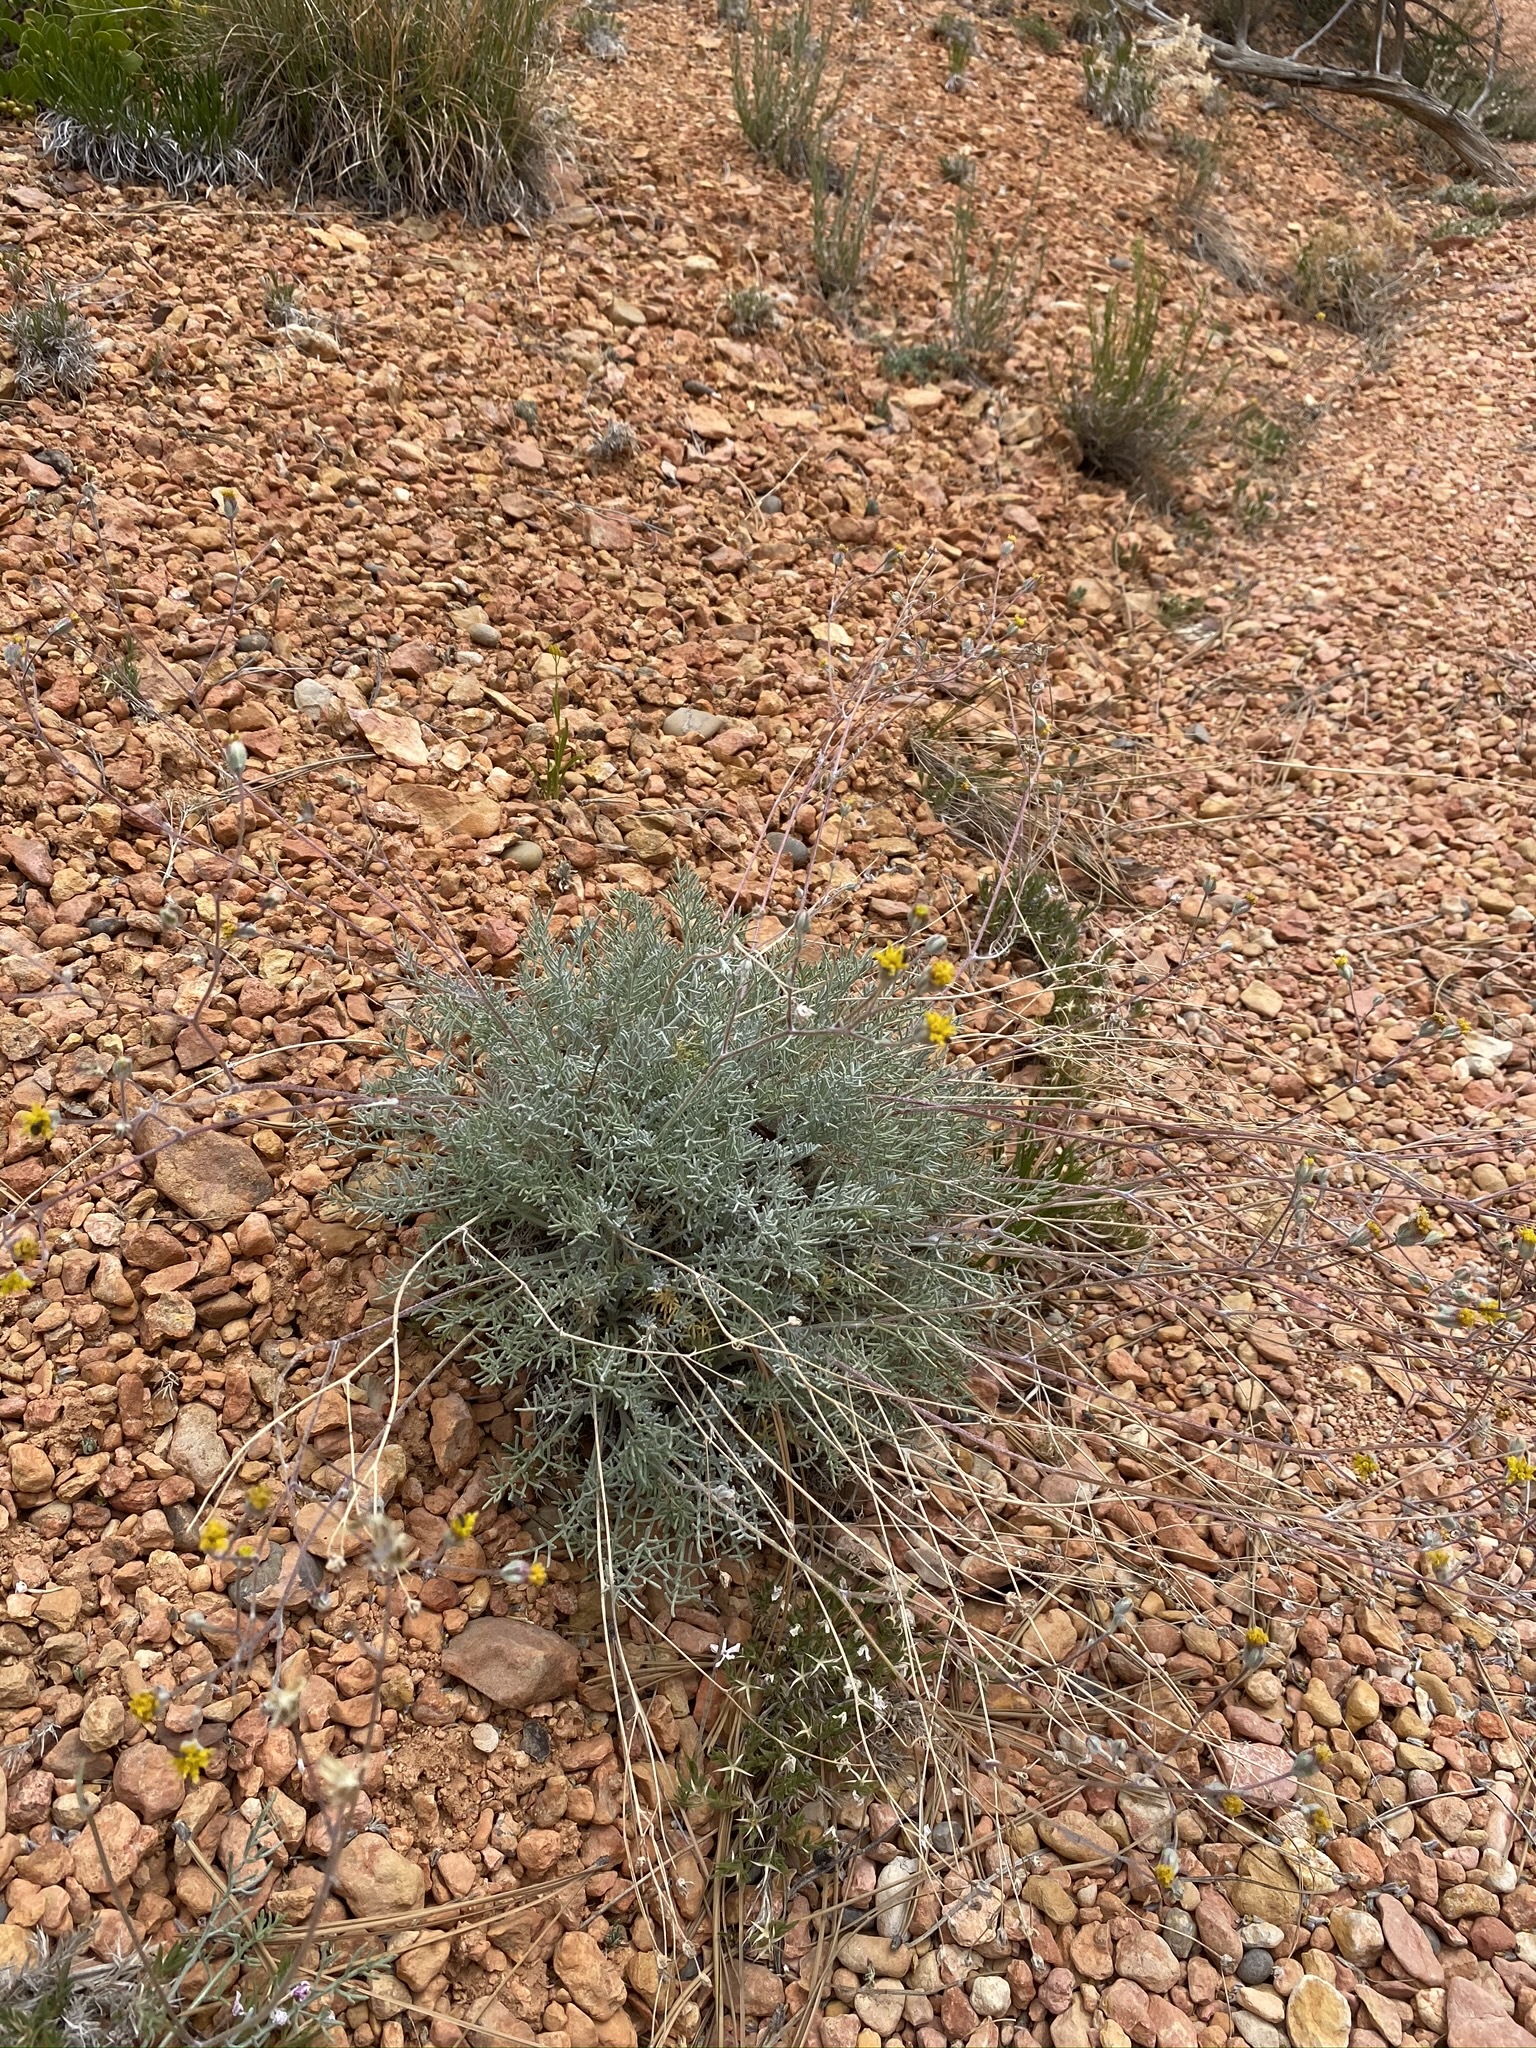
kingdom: Plantae
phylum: Tracheophyta
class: Magnoliopsida
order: Asterales
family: Asteraceae
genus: Hymenopappus
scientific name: Hymenopappus filifolius
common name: Columbia cutleaf
